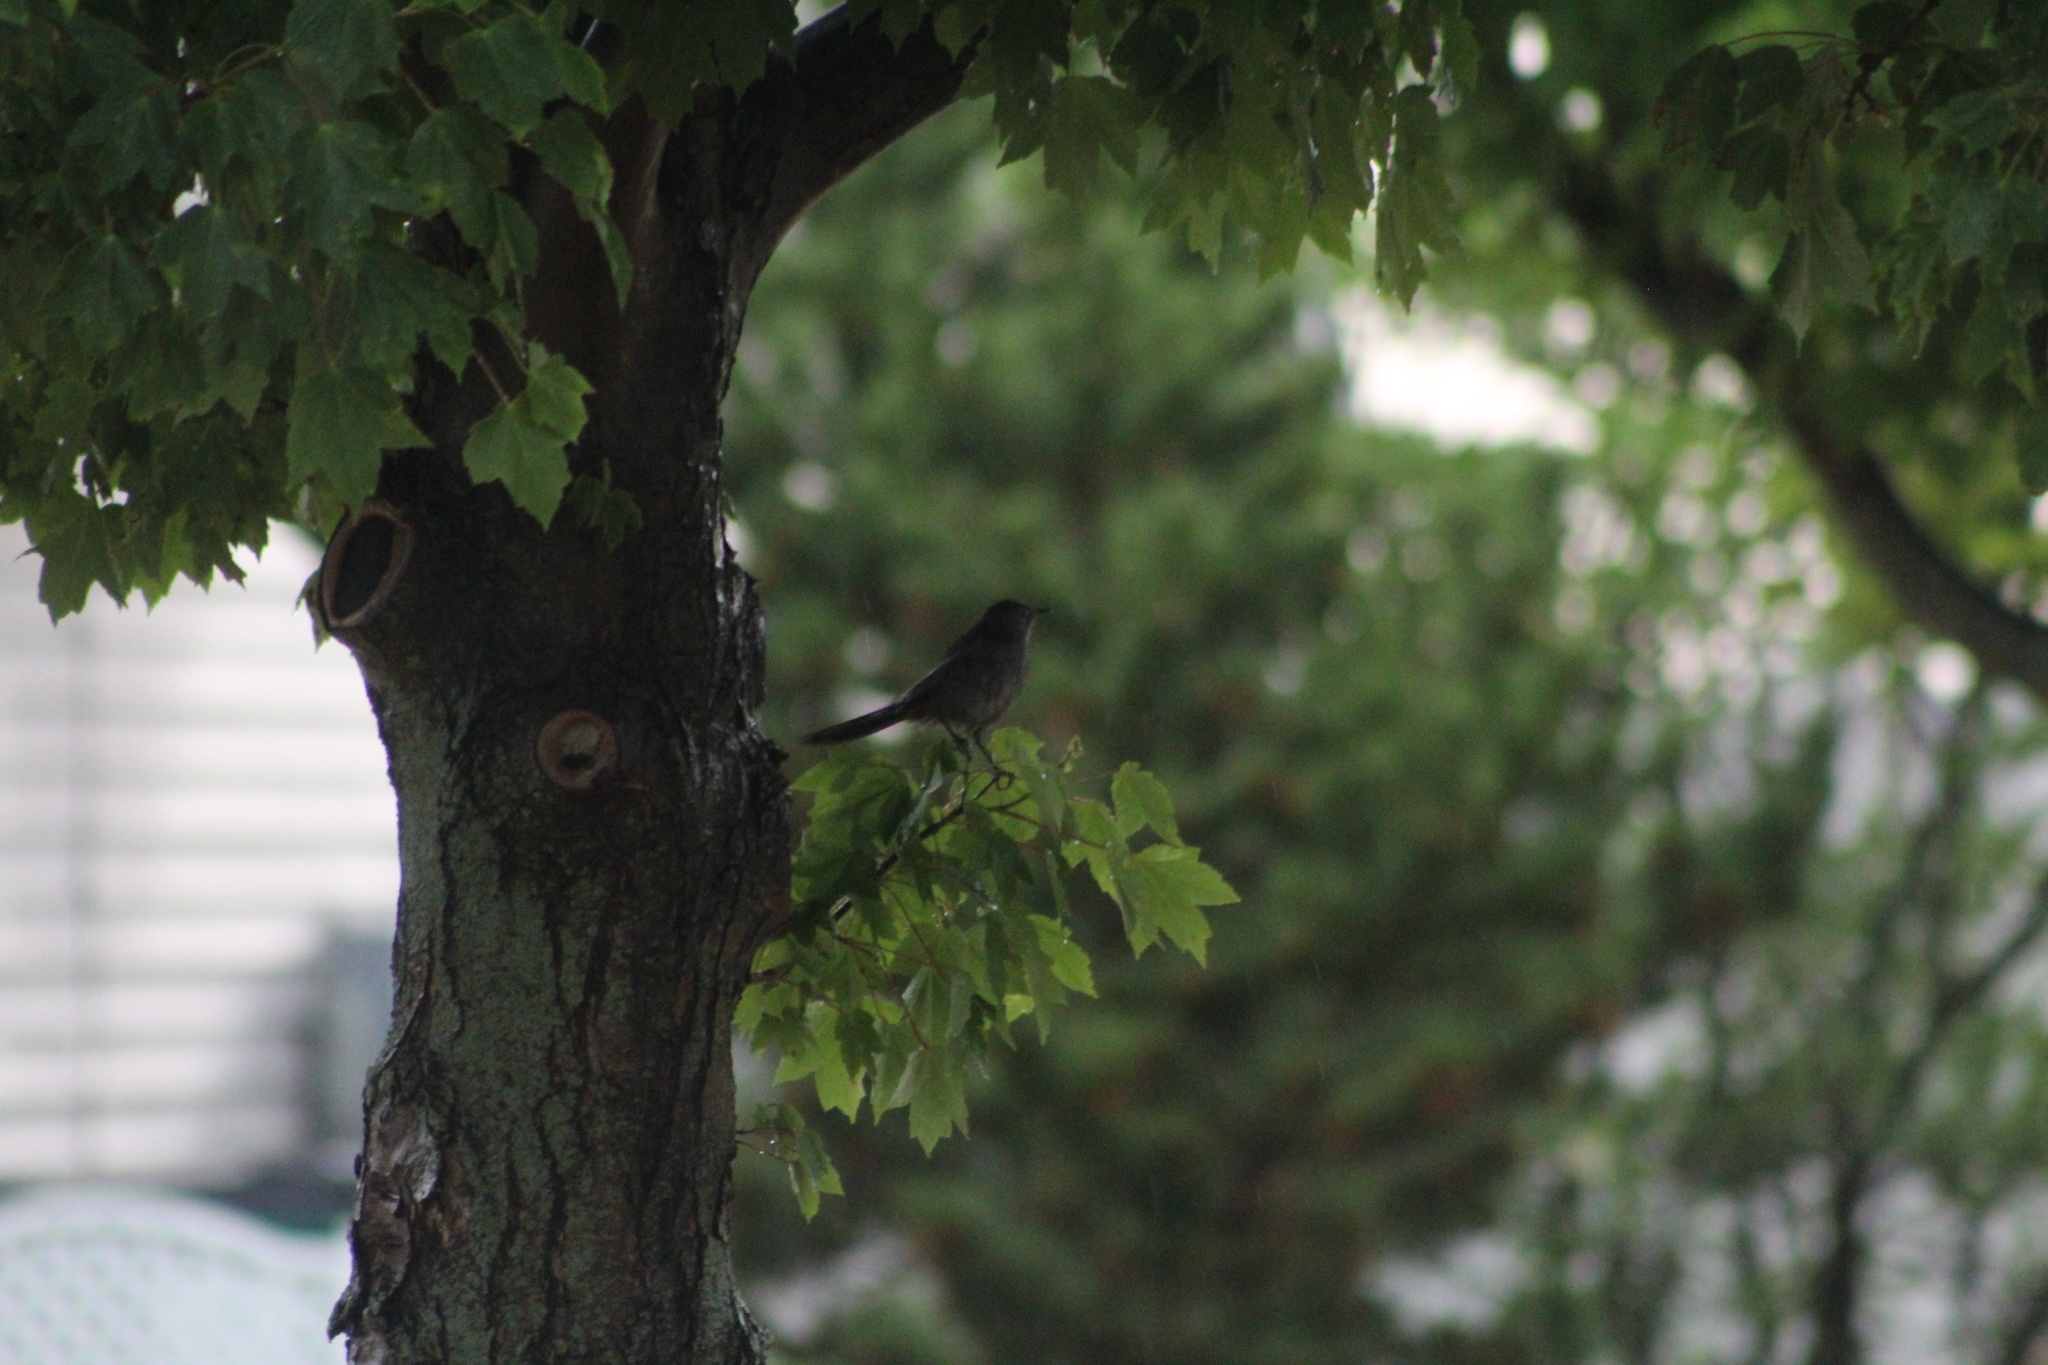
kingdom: Animalia
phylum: Chordata
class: Aves
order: Passeriformes
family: Mimidae
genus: Dumetella
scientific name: Dumetella carolinensis
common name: Gray catbird
